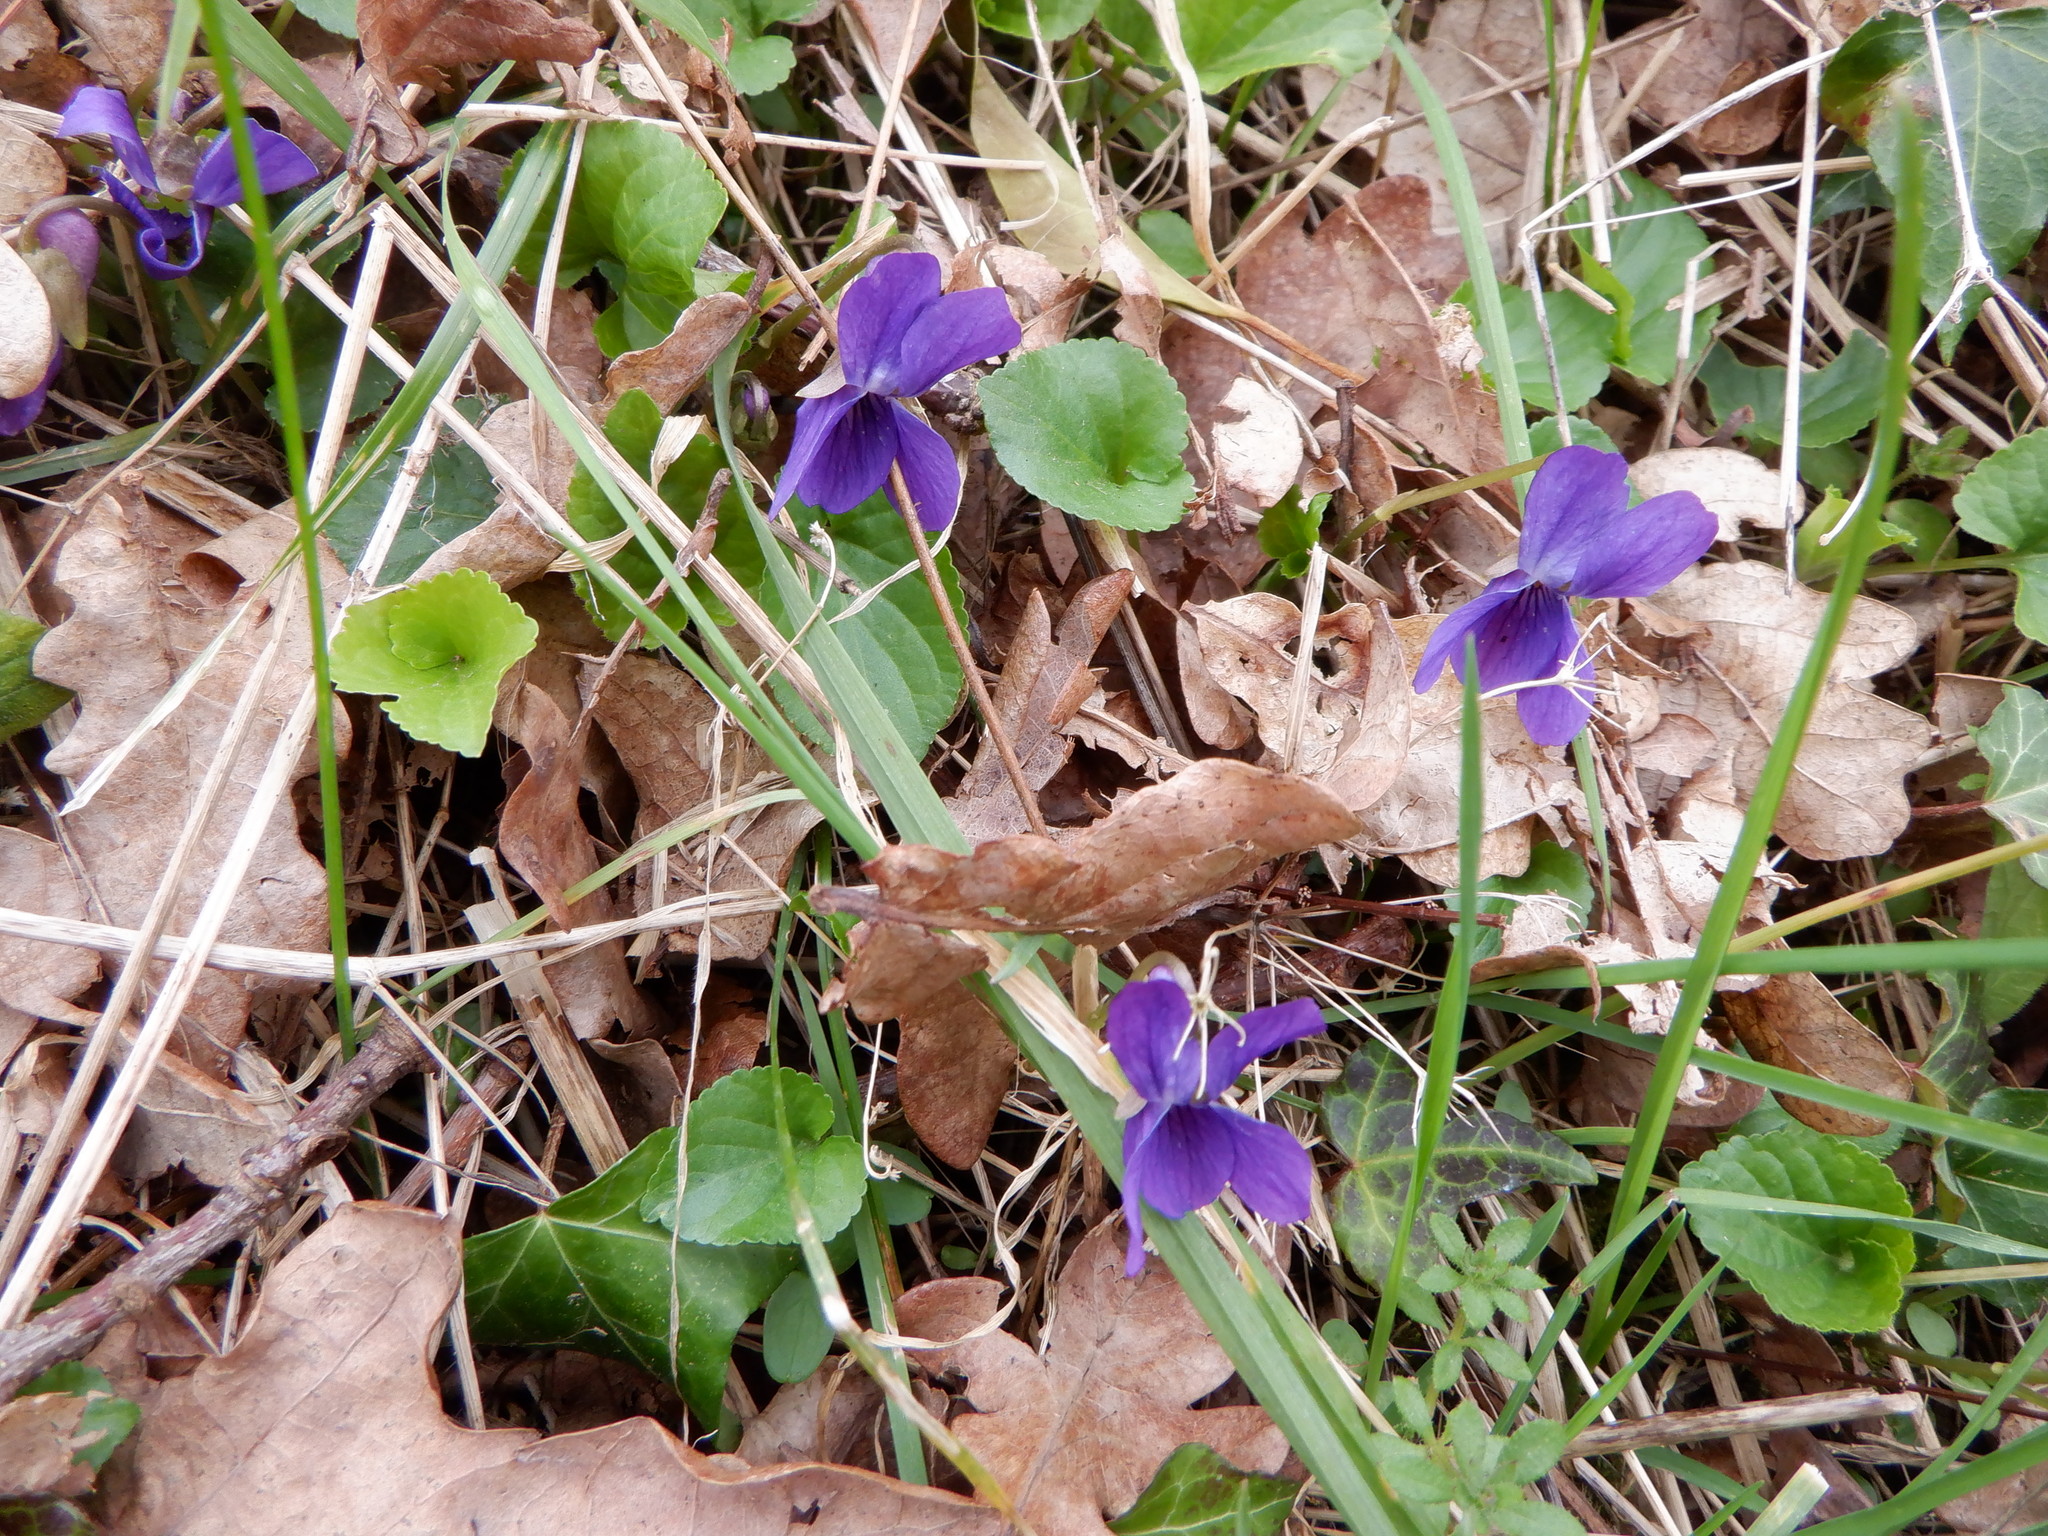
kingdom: Plantae
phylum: Tracheophyta
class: Magnoliopsida
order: Malpighiales
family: Violaceae
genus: Viola
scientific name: Viola odorata
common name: Sweet violet
